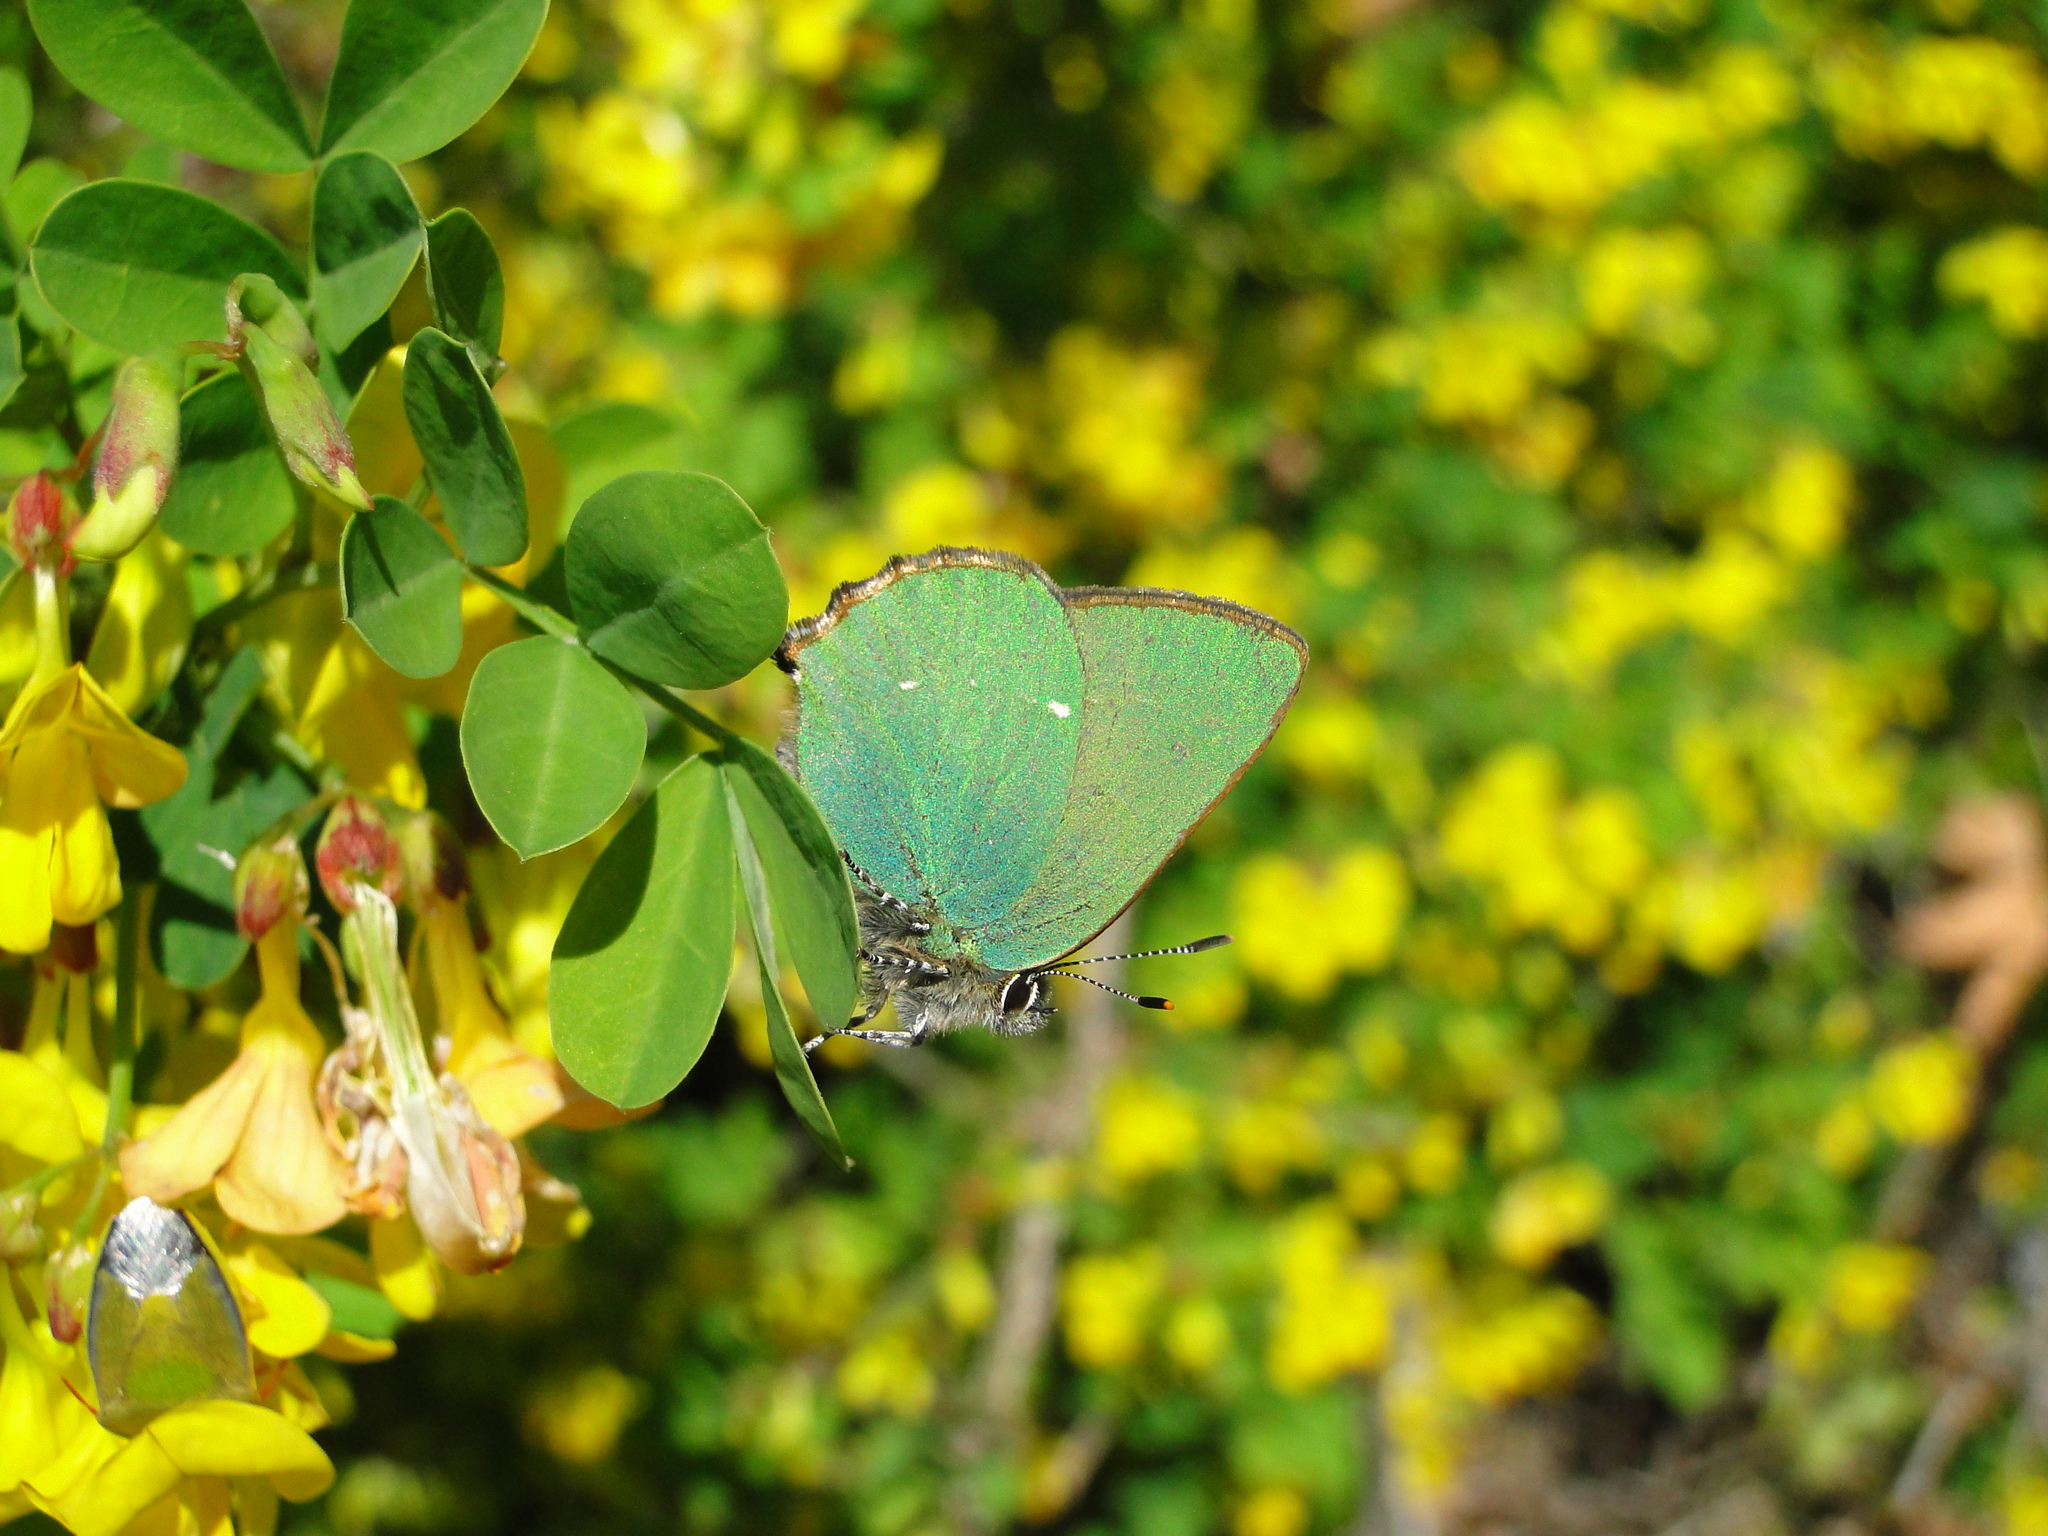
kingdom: Animalia
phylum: Arthropoda
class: Insecta
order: Lepidoptera
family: Lycaenidae
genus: Callophrys
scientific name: Callophrys rubi
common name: Green hairstreak
